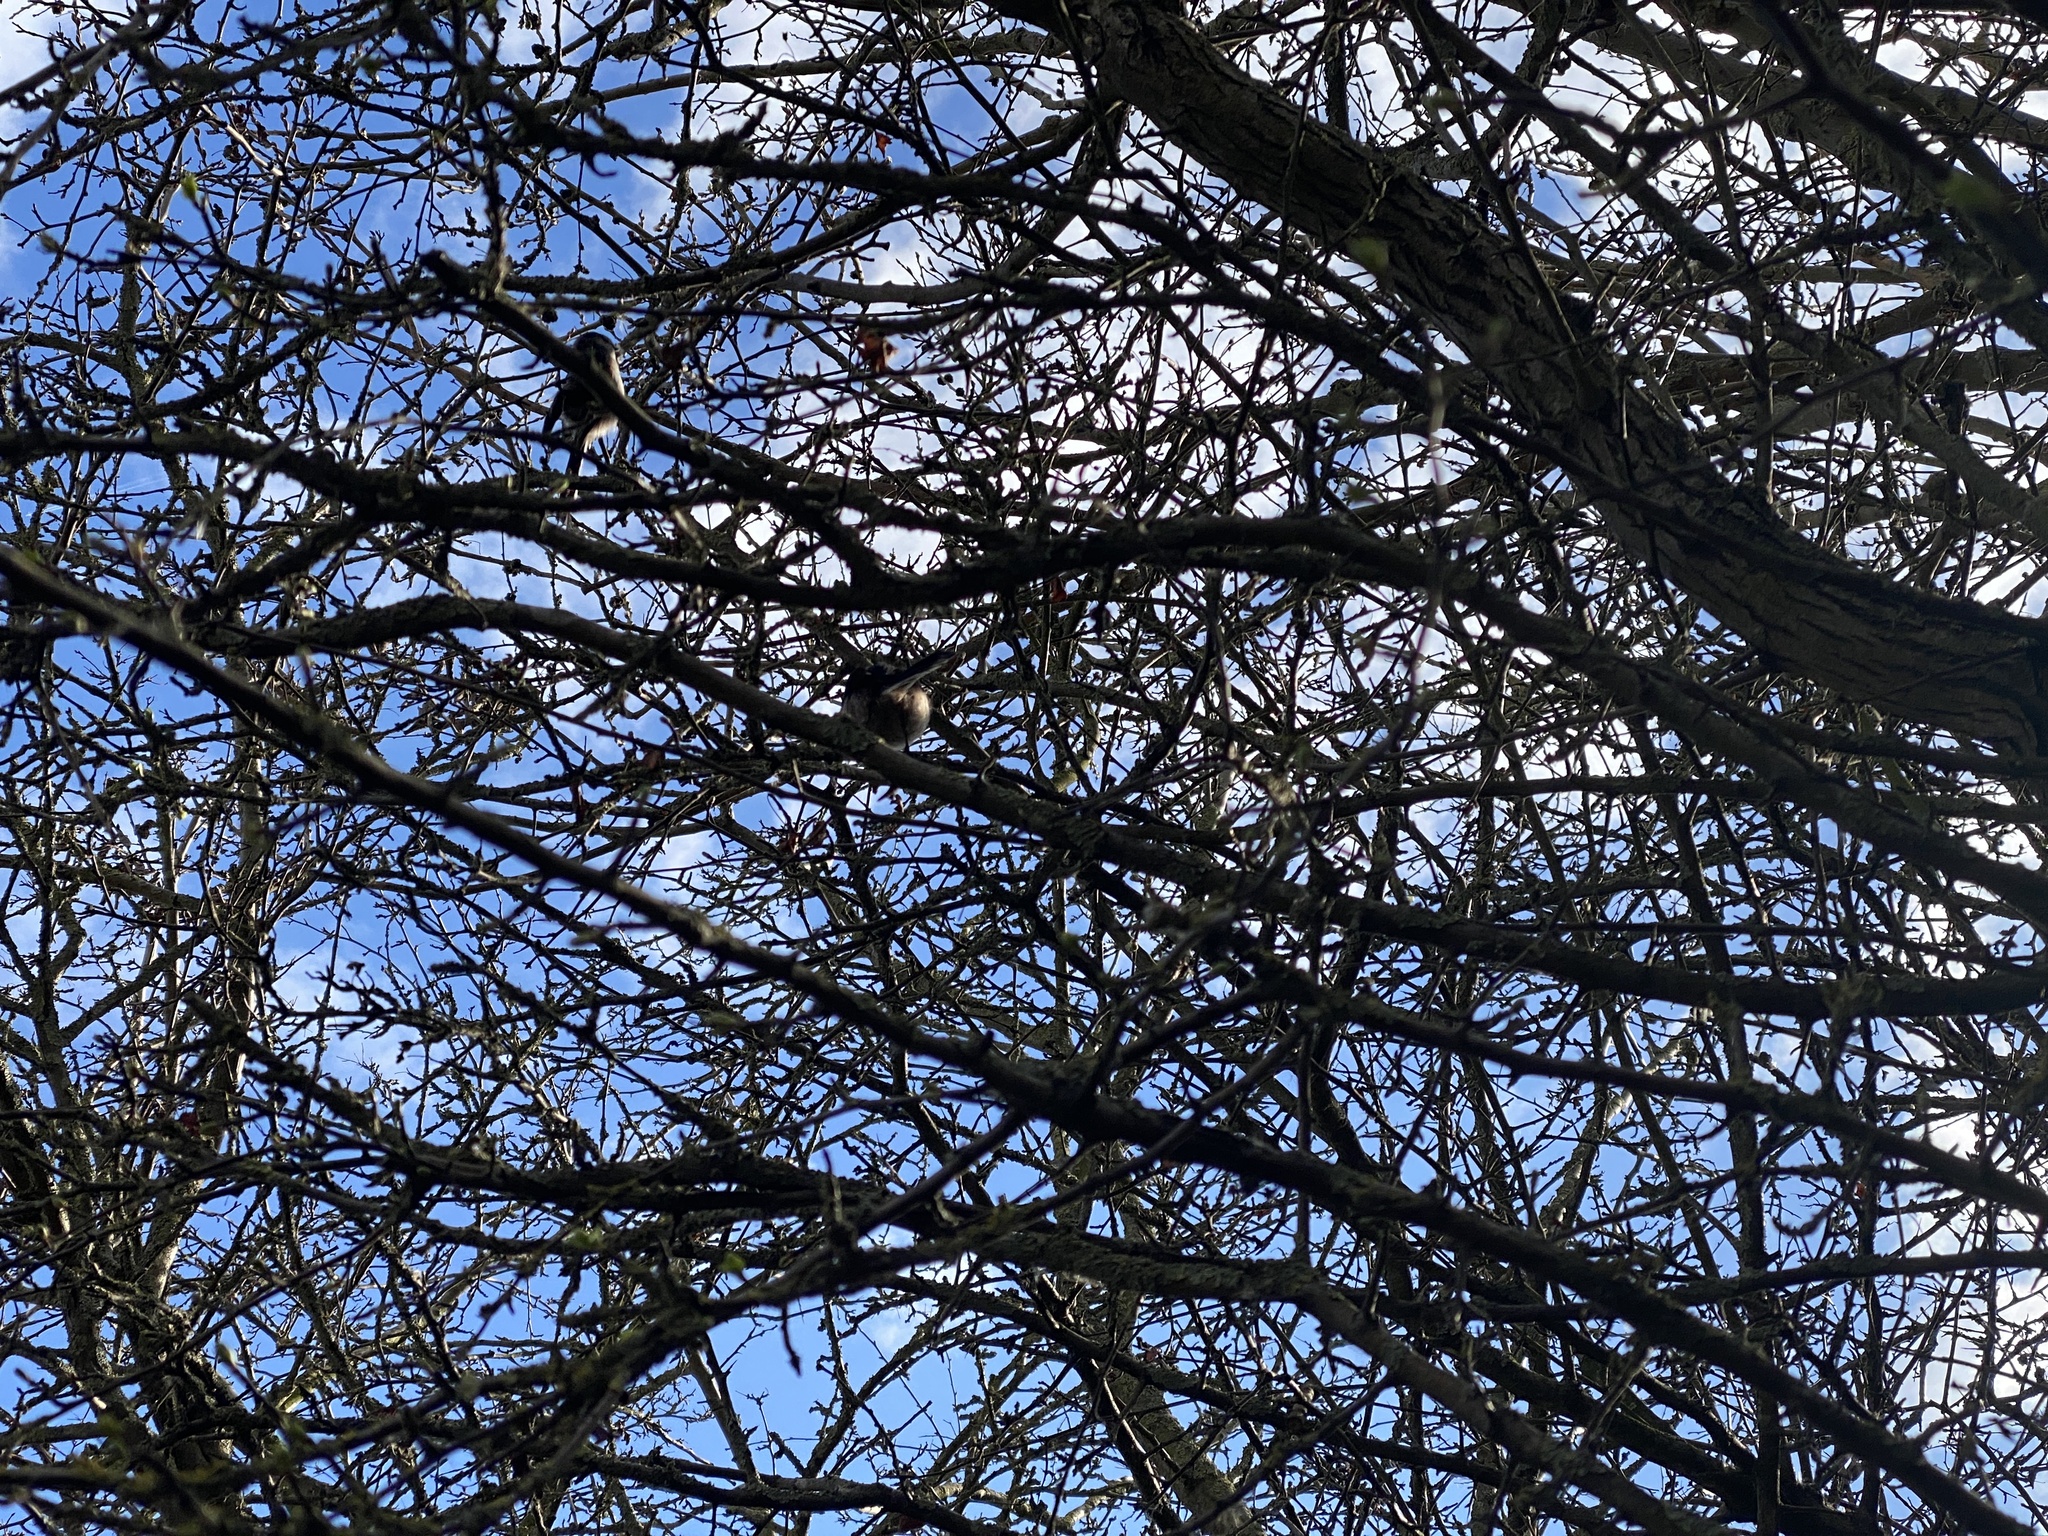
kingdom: Animalia
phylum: Chordata
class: Aves
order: Passeriformes
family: Aegithalidae
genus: Aegithalos
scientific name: Aegithalos caudatus
